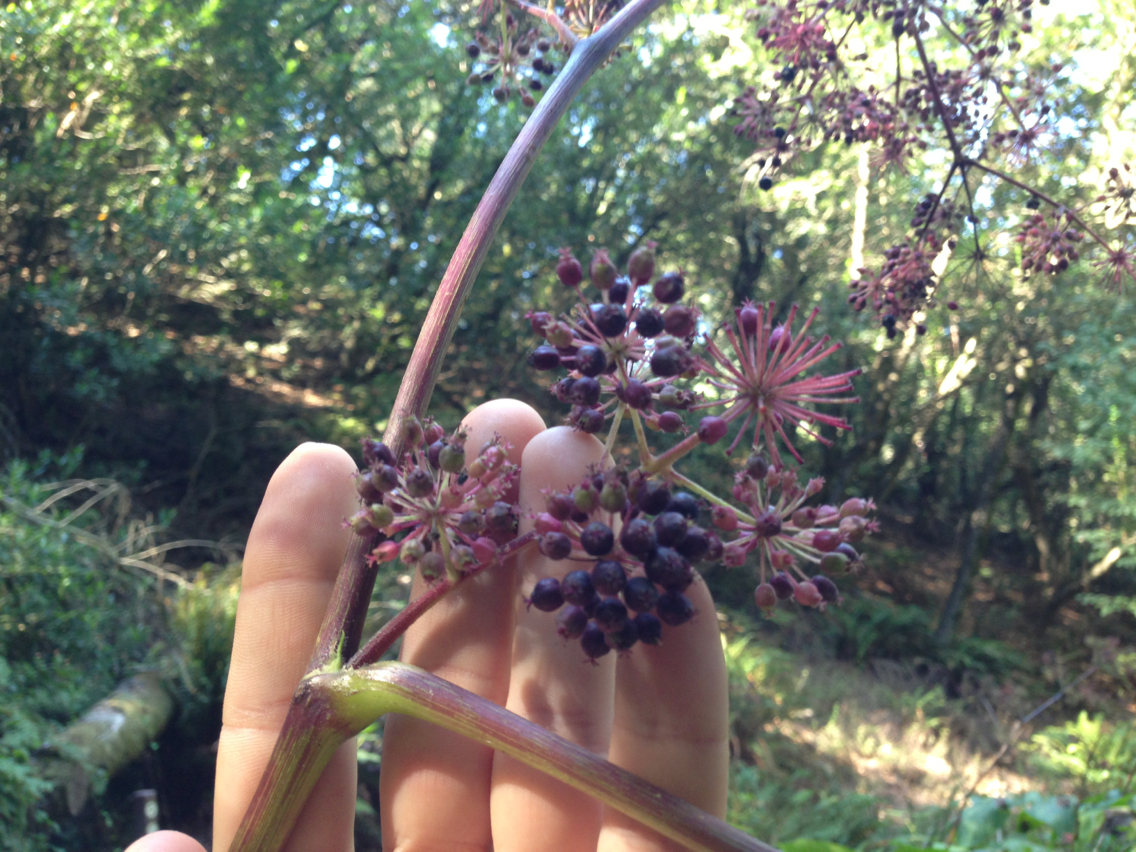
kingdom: Plantae
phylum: Tracheophyta
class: Magnoliopsida
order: Apiales
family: Araliaceae
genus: Aralia
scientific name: Aralia californica
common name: California-ginseng
